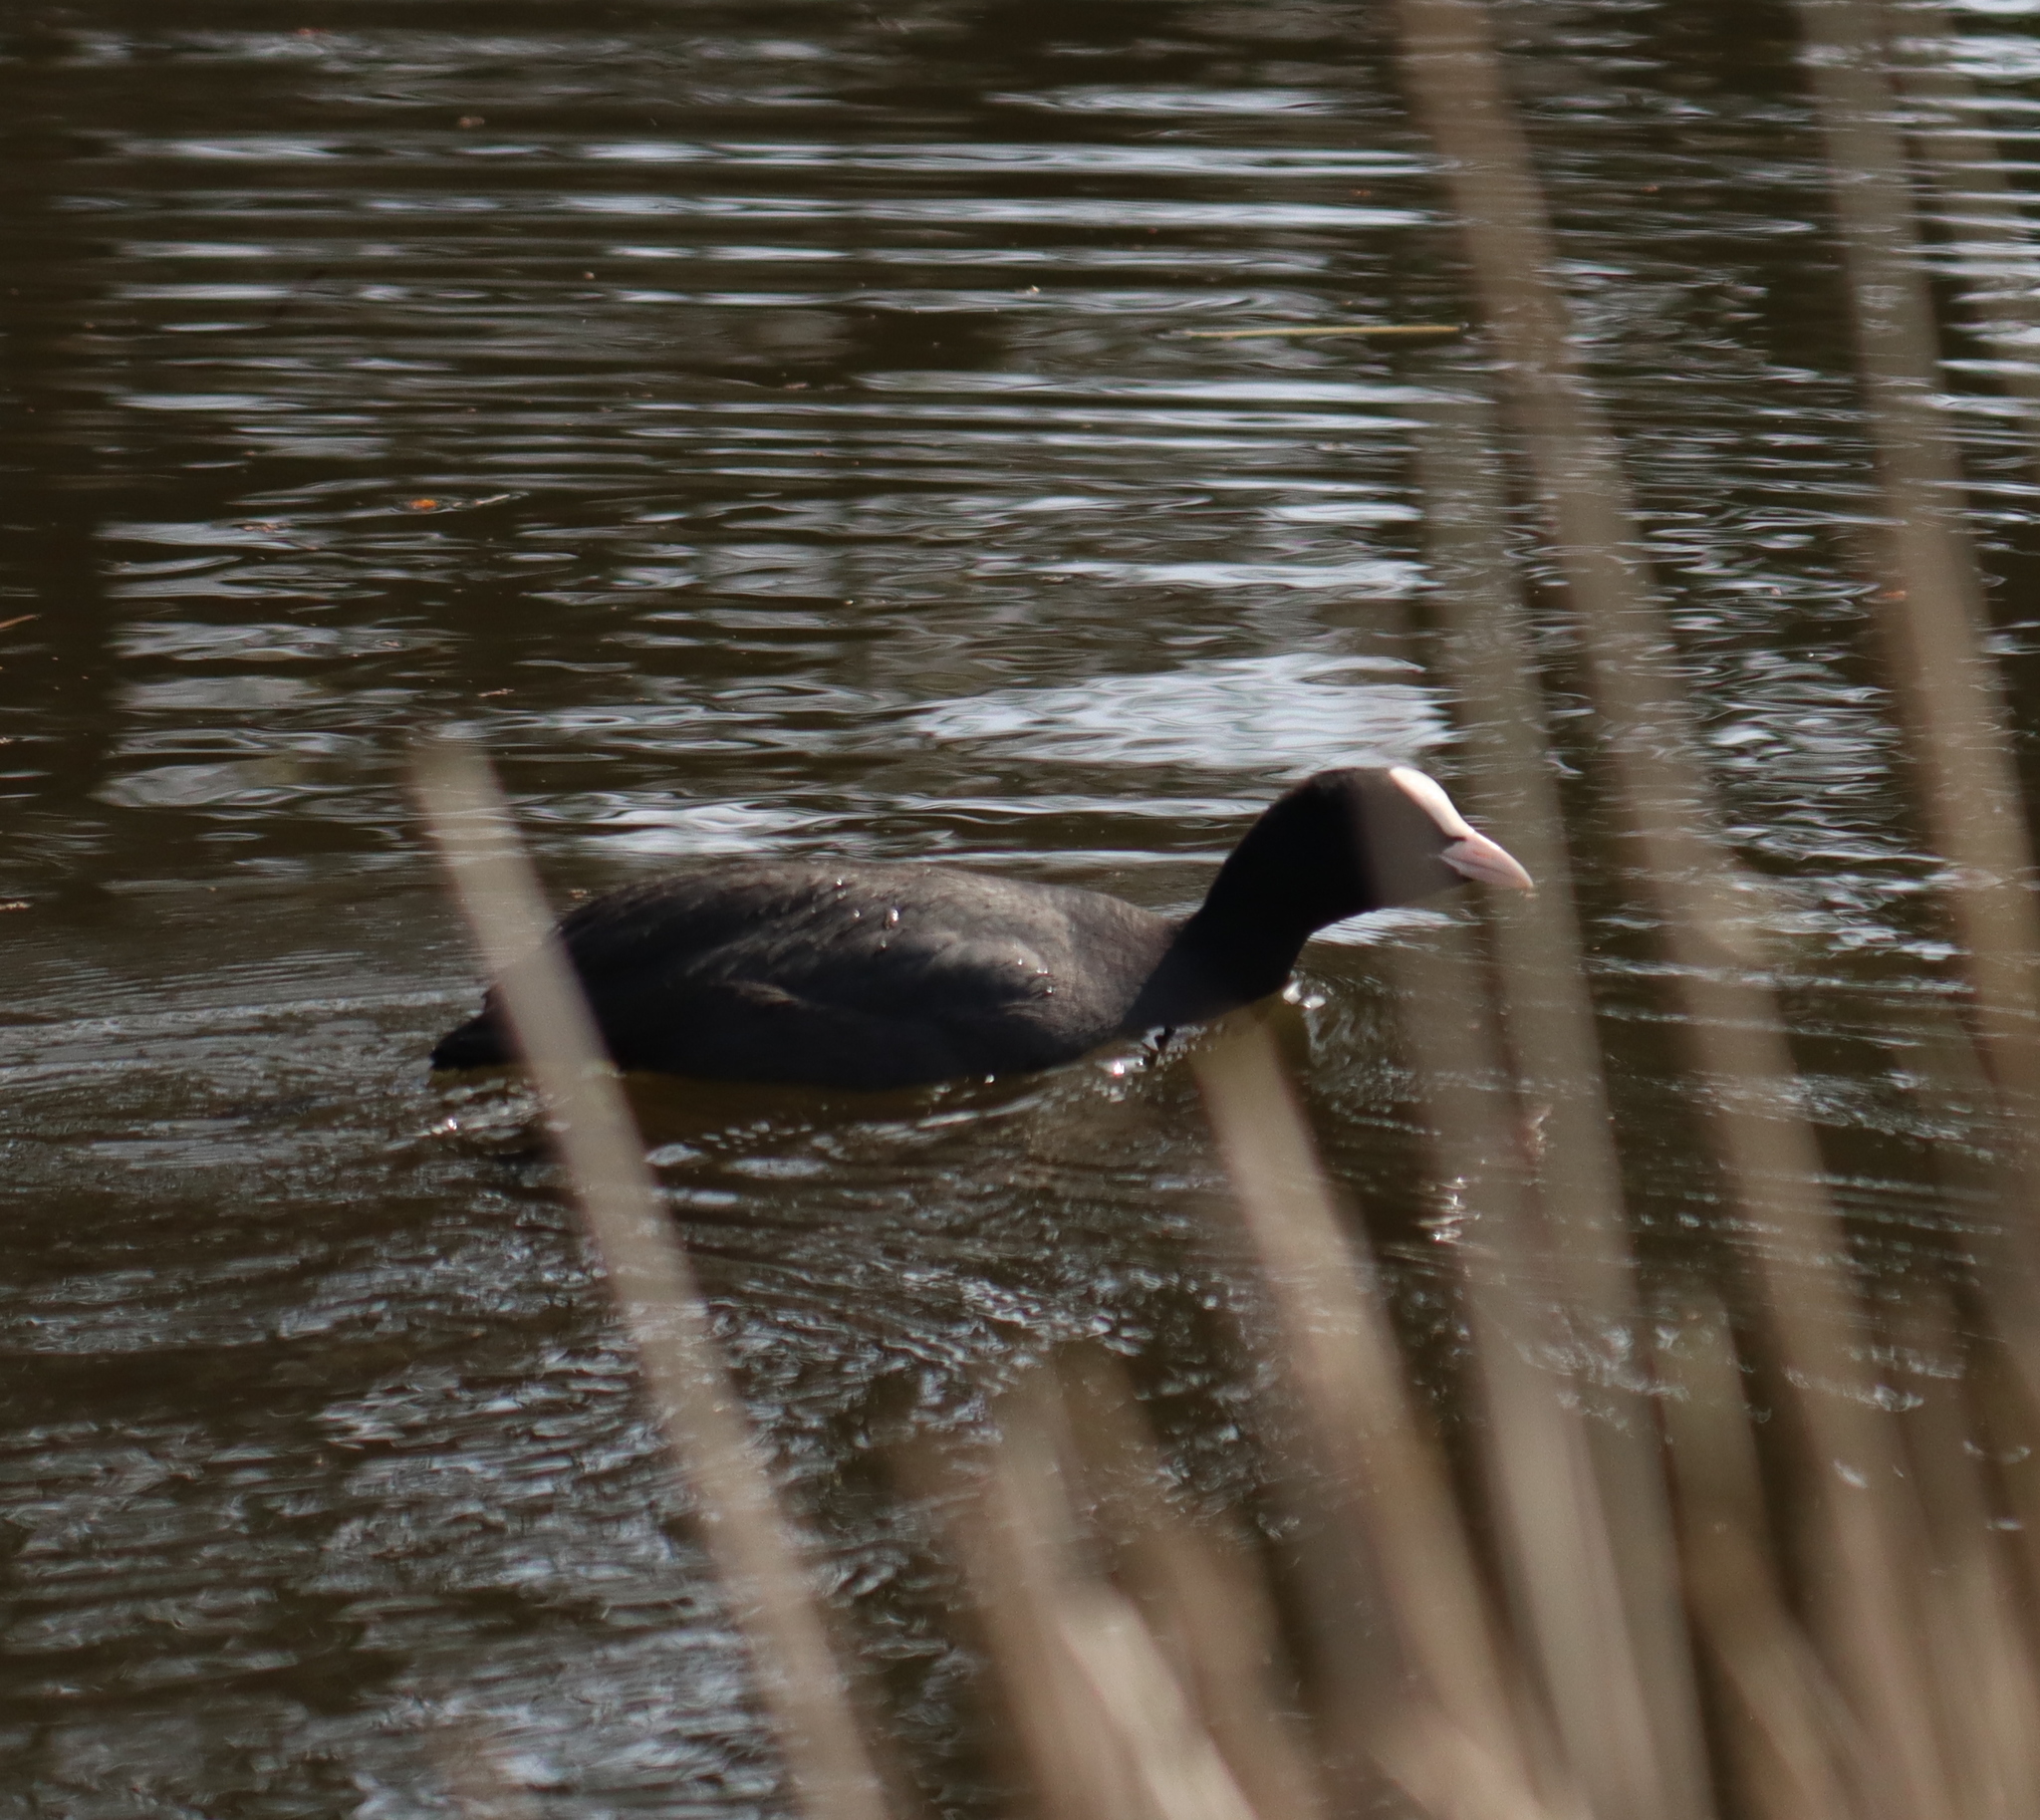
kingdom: Animalia
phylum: Chordata
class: Aves
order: Gruiformes
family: Rallidae
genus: Fulica
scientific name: Fulica atra
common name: Eurasian coot
